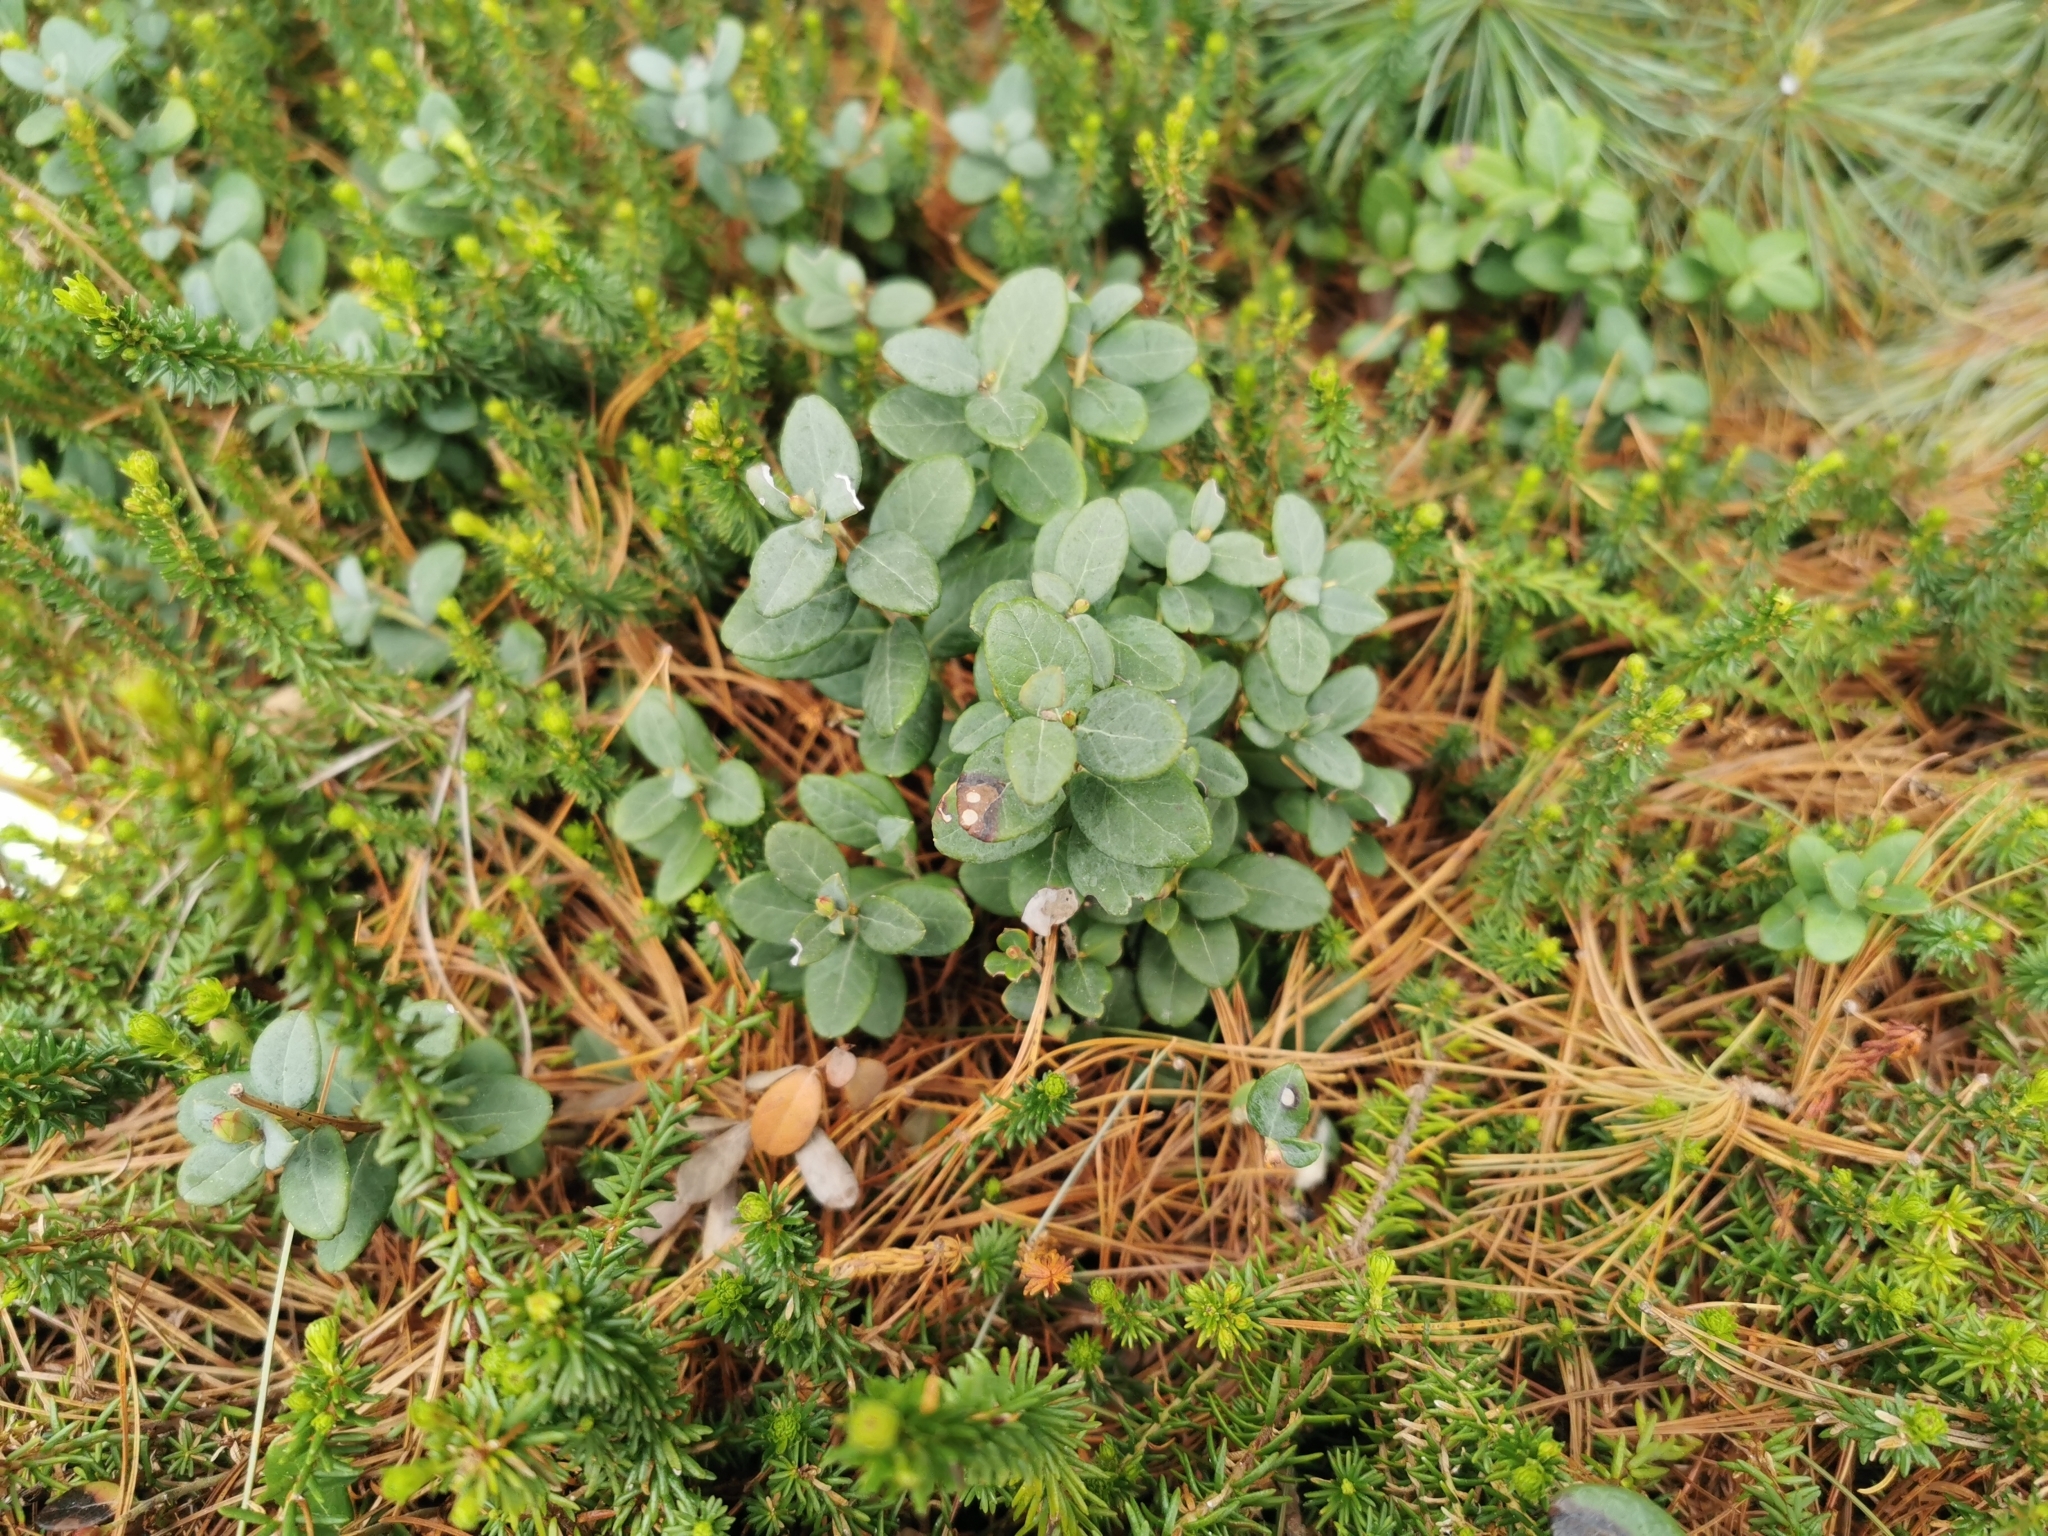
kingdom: Plantae
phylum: Tracheophyta
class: Magnoliopsida
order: Ericales
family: Ericaceae
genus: Vaccinium
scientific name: Vaccinium vitis-idaea
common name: Cowberry
